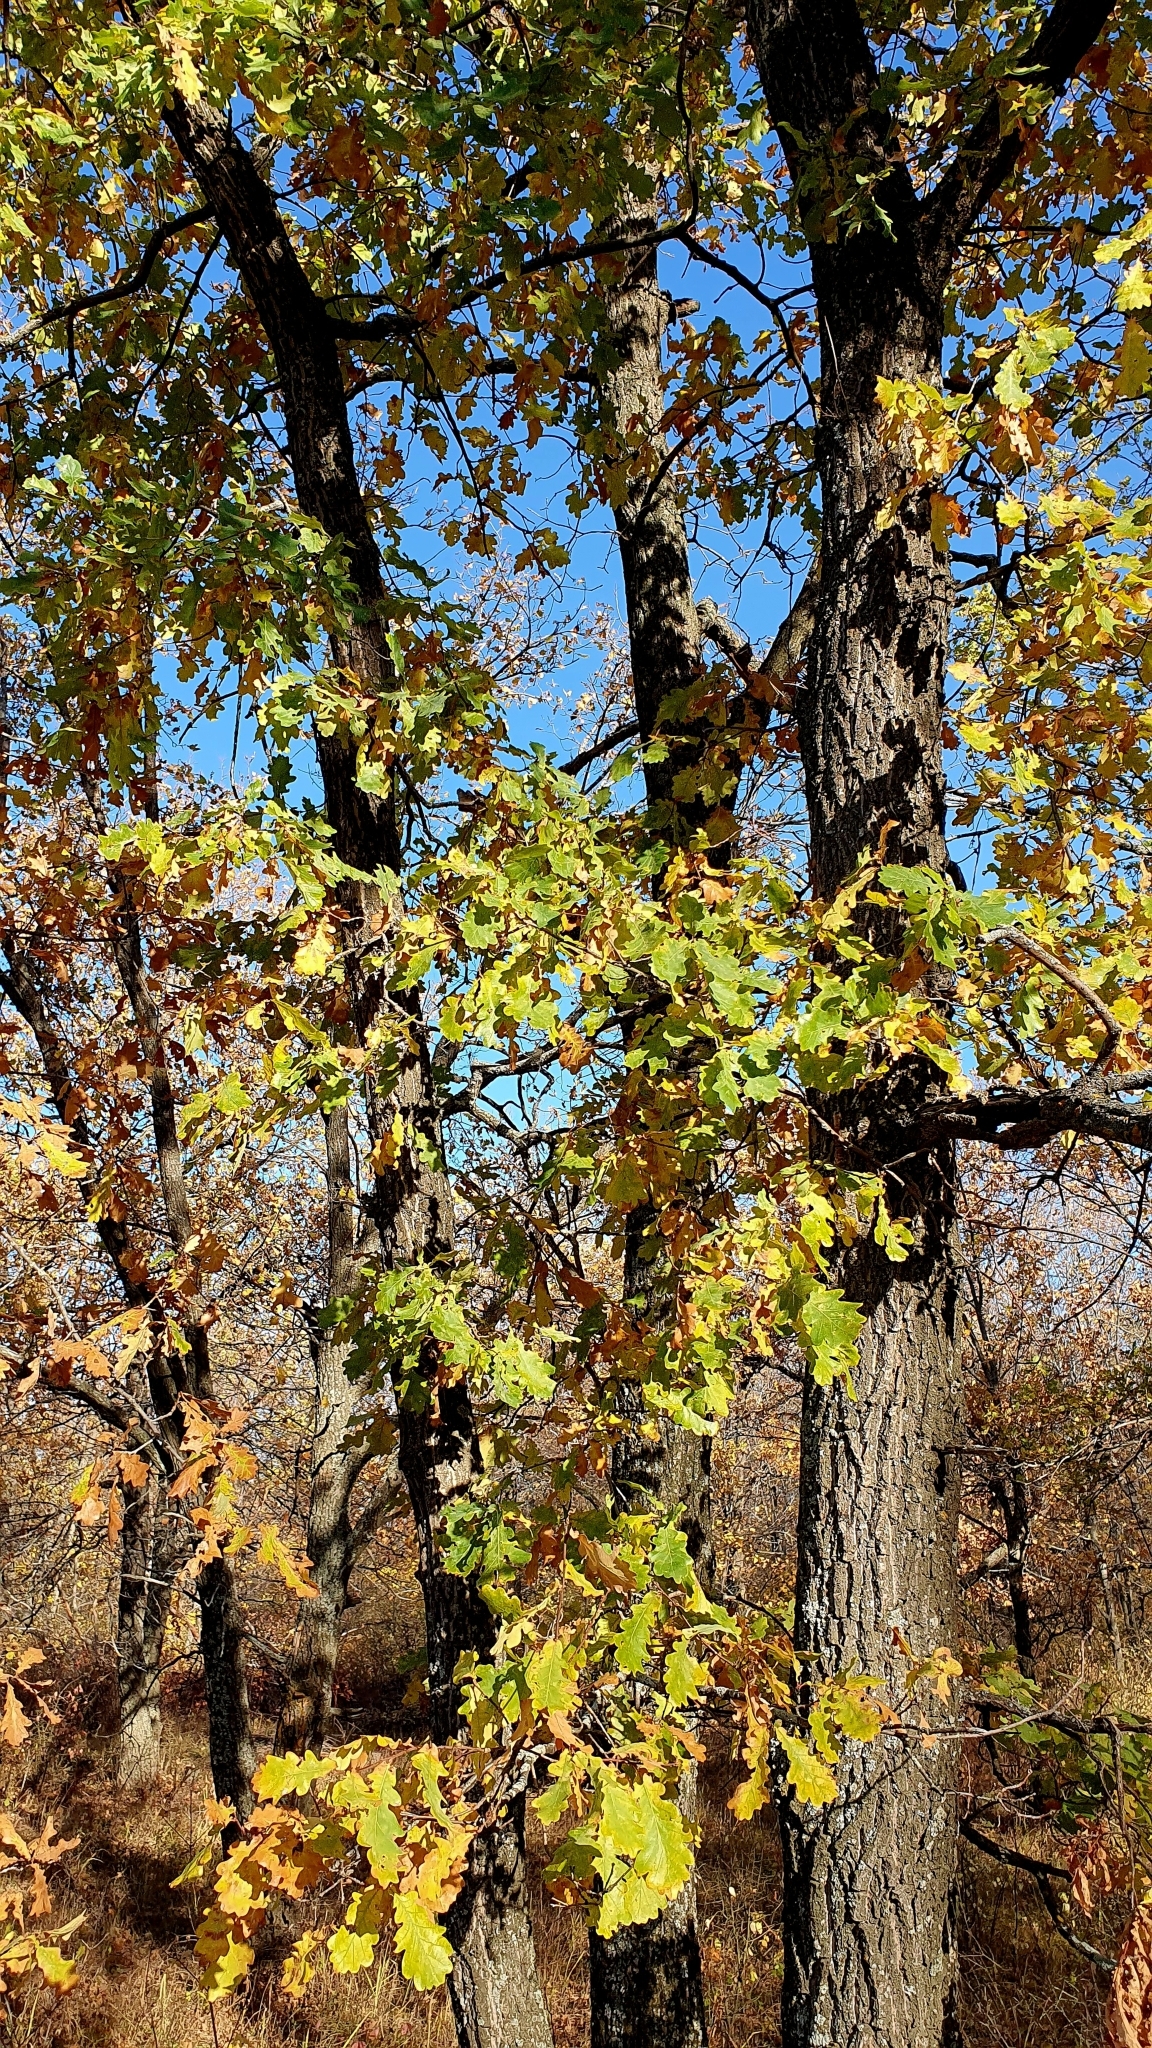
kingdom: Plantae
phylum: Tracheophyta
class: Magnoliopsida
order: Fagales
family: Fagaceae
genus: Quercus
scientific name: Quercus robur
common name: Pedunculate oak
